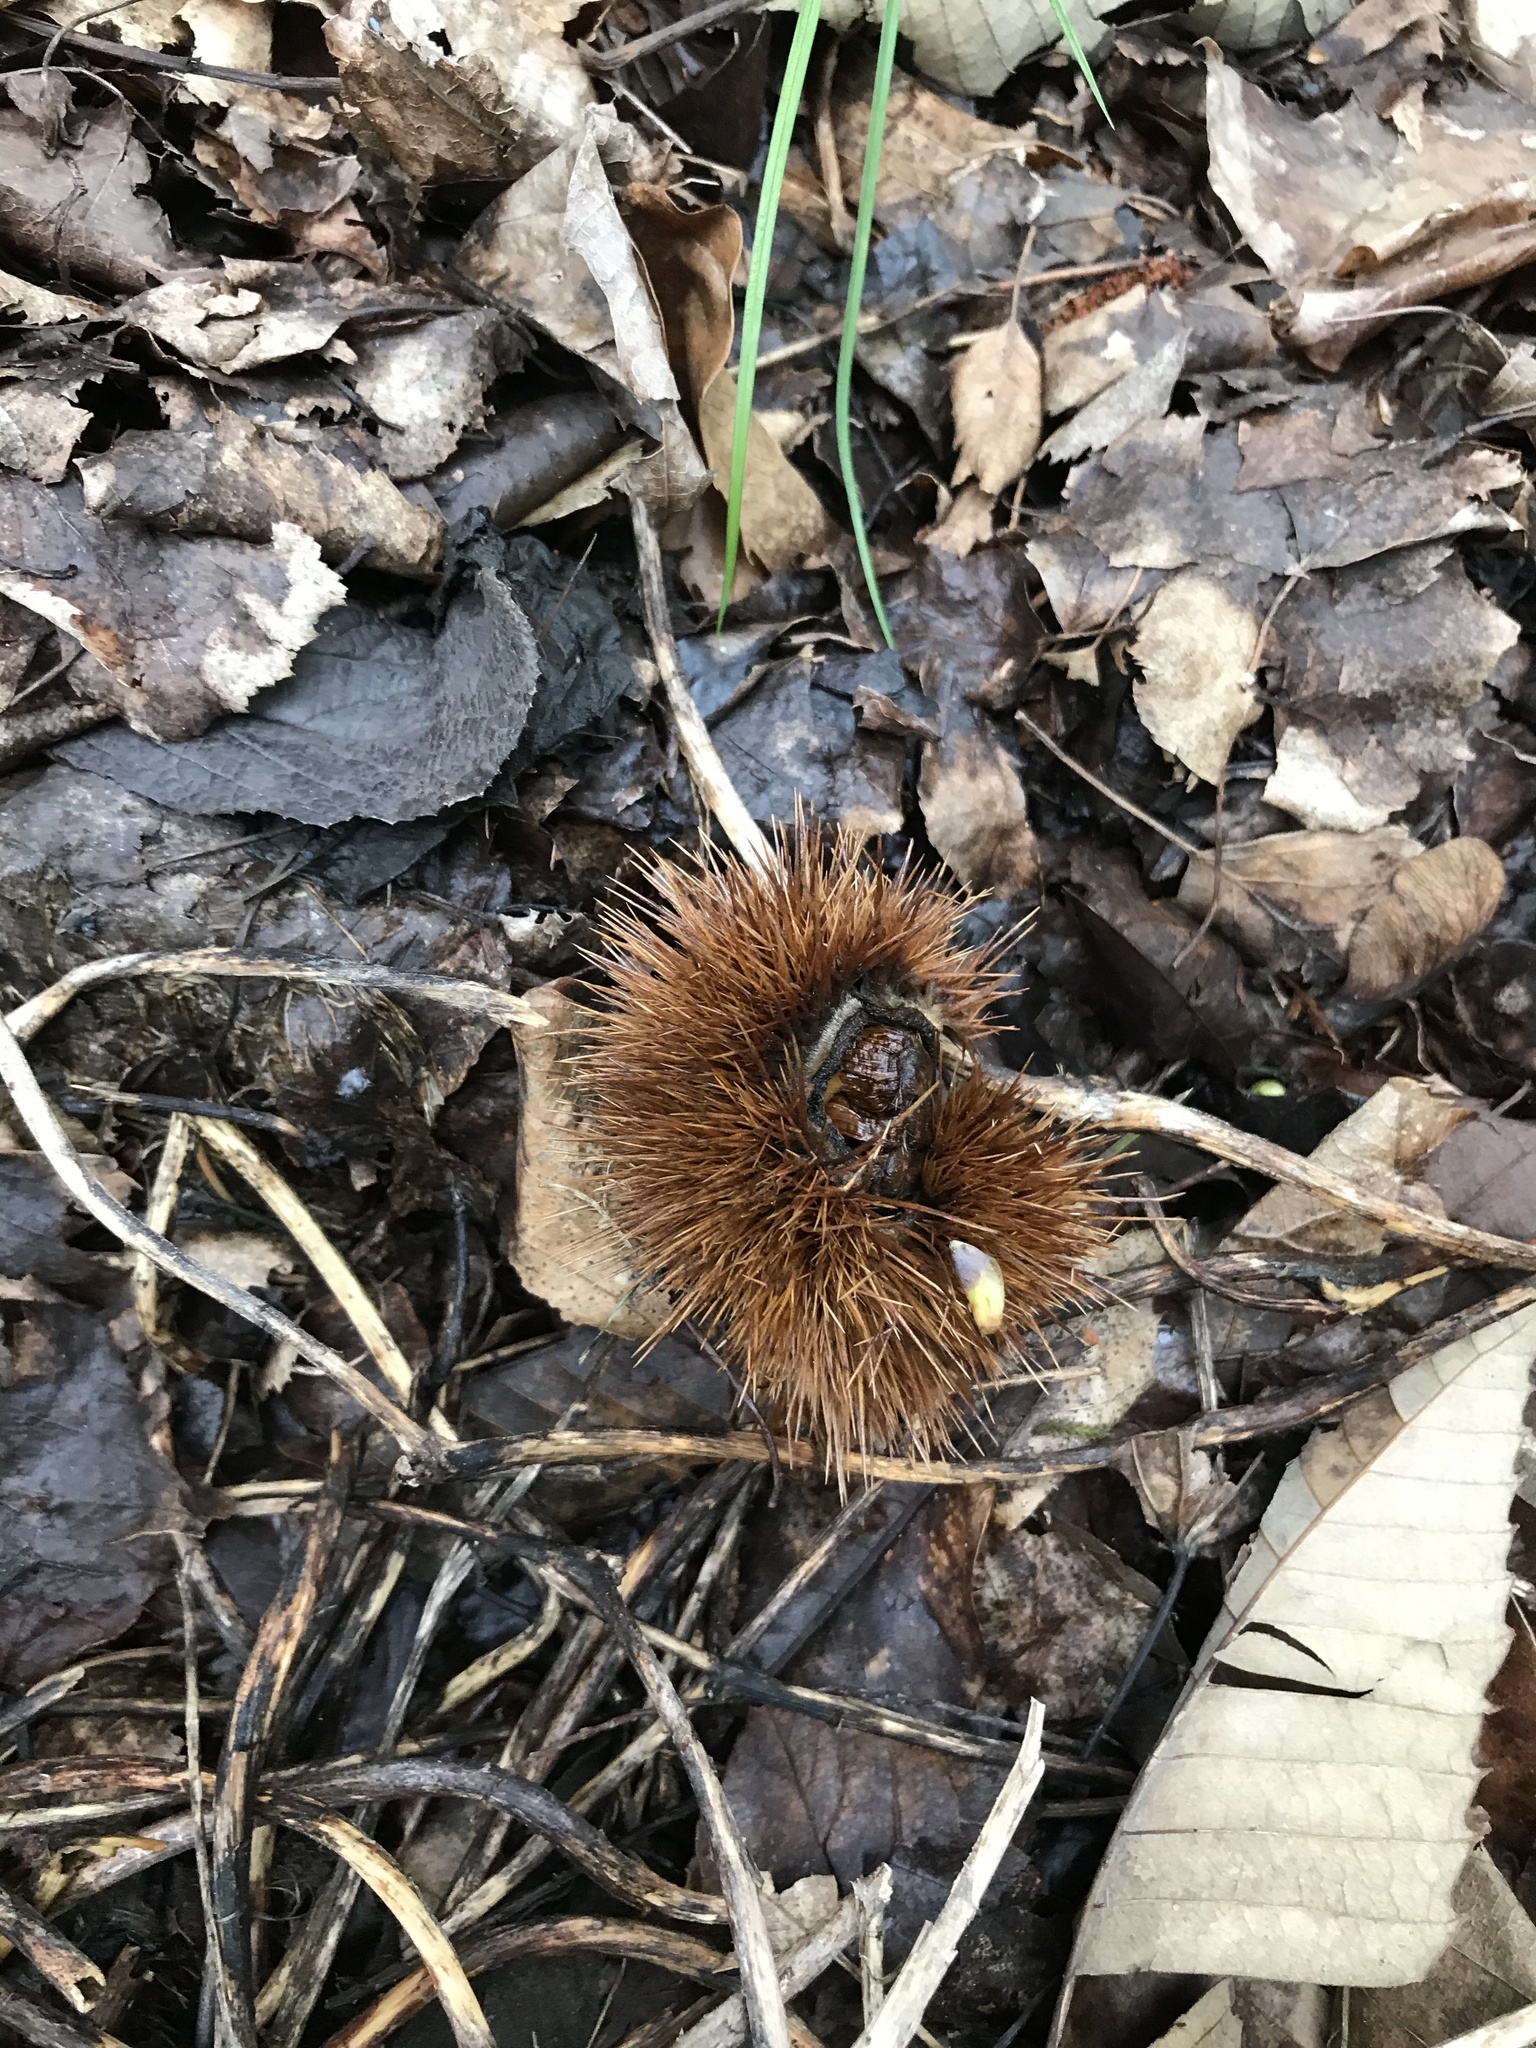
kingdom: Plantae
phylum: Tracheophyta
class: Magnoliopsida
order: Fagales
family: Fagaceae
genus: Castanea
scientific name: Castanea sativa
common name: Sweet chestnut
